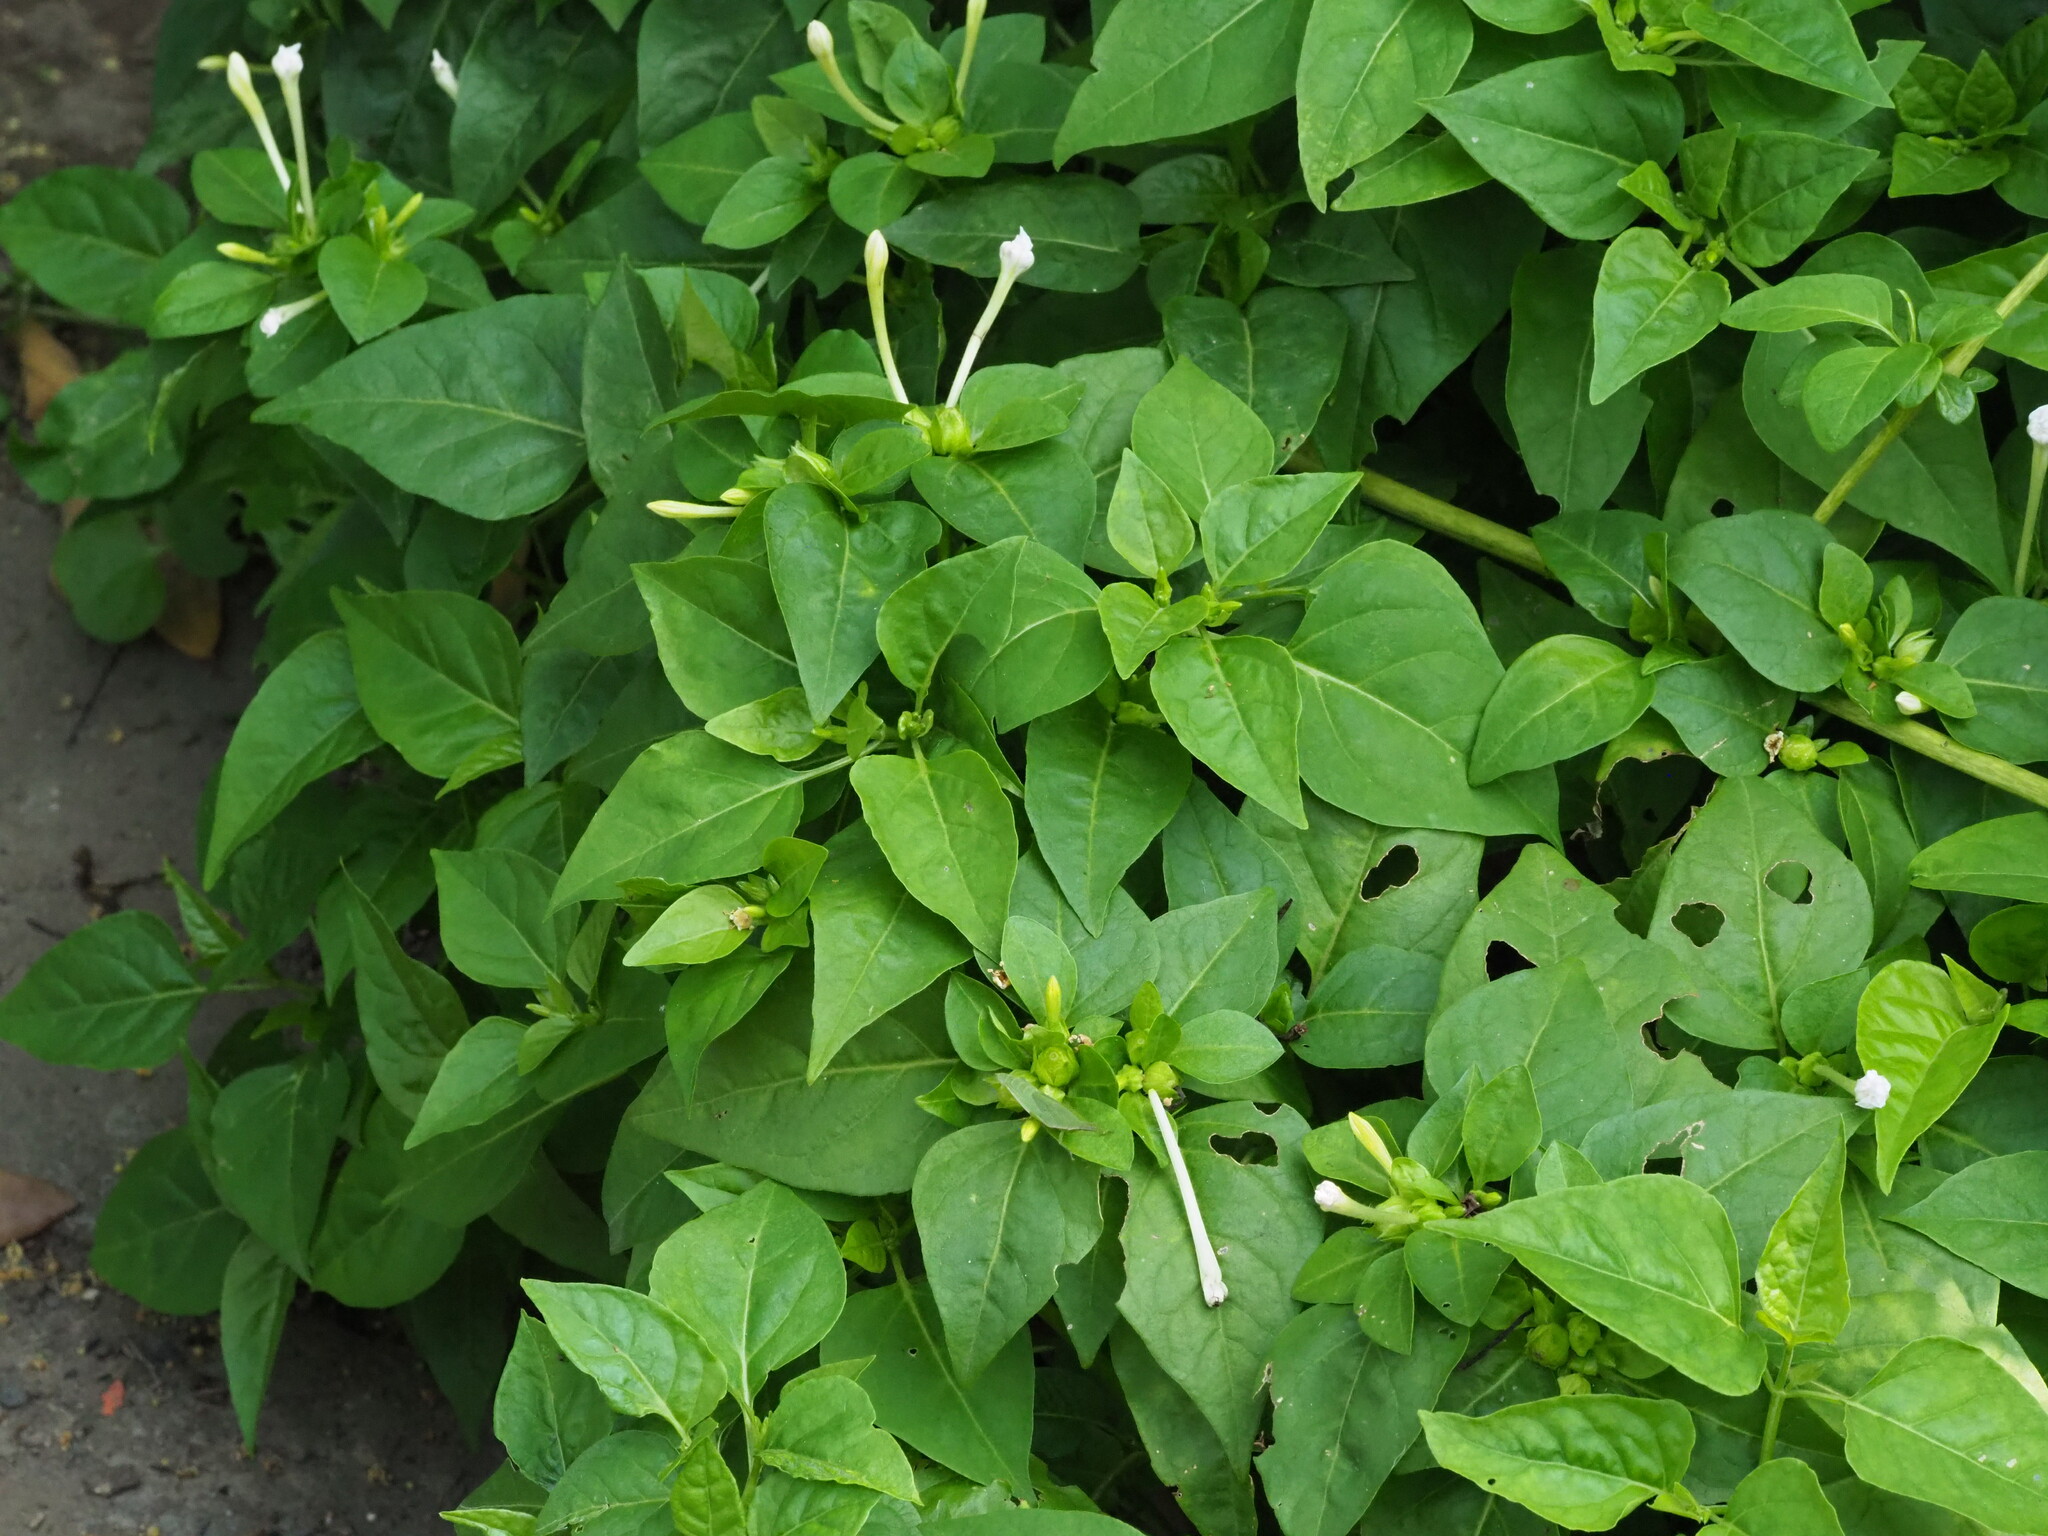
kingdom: Plantae
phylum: Tracheophyta
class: Magnoliopsida
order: Caryophyllales
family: Nyctaginaceae
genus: Mirabilis
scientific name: Mirabilis jalapa
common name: Marvel-of-peru
